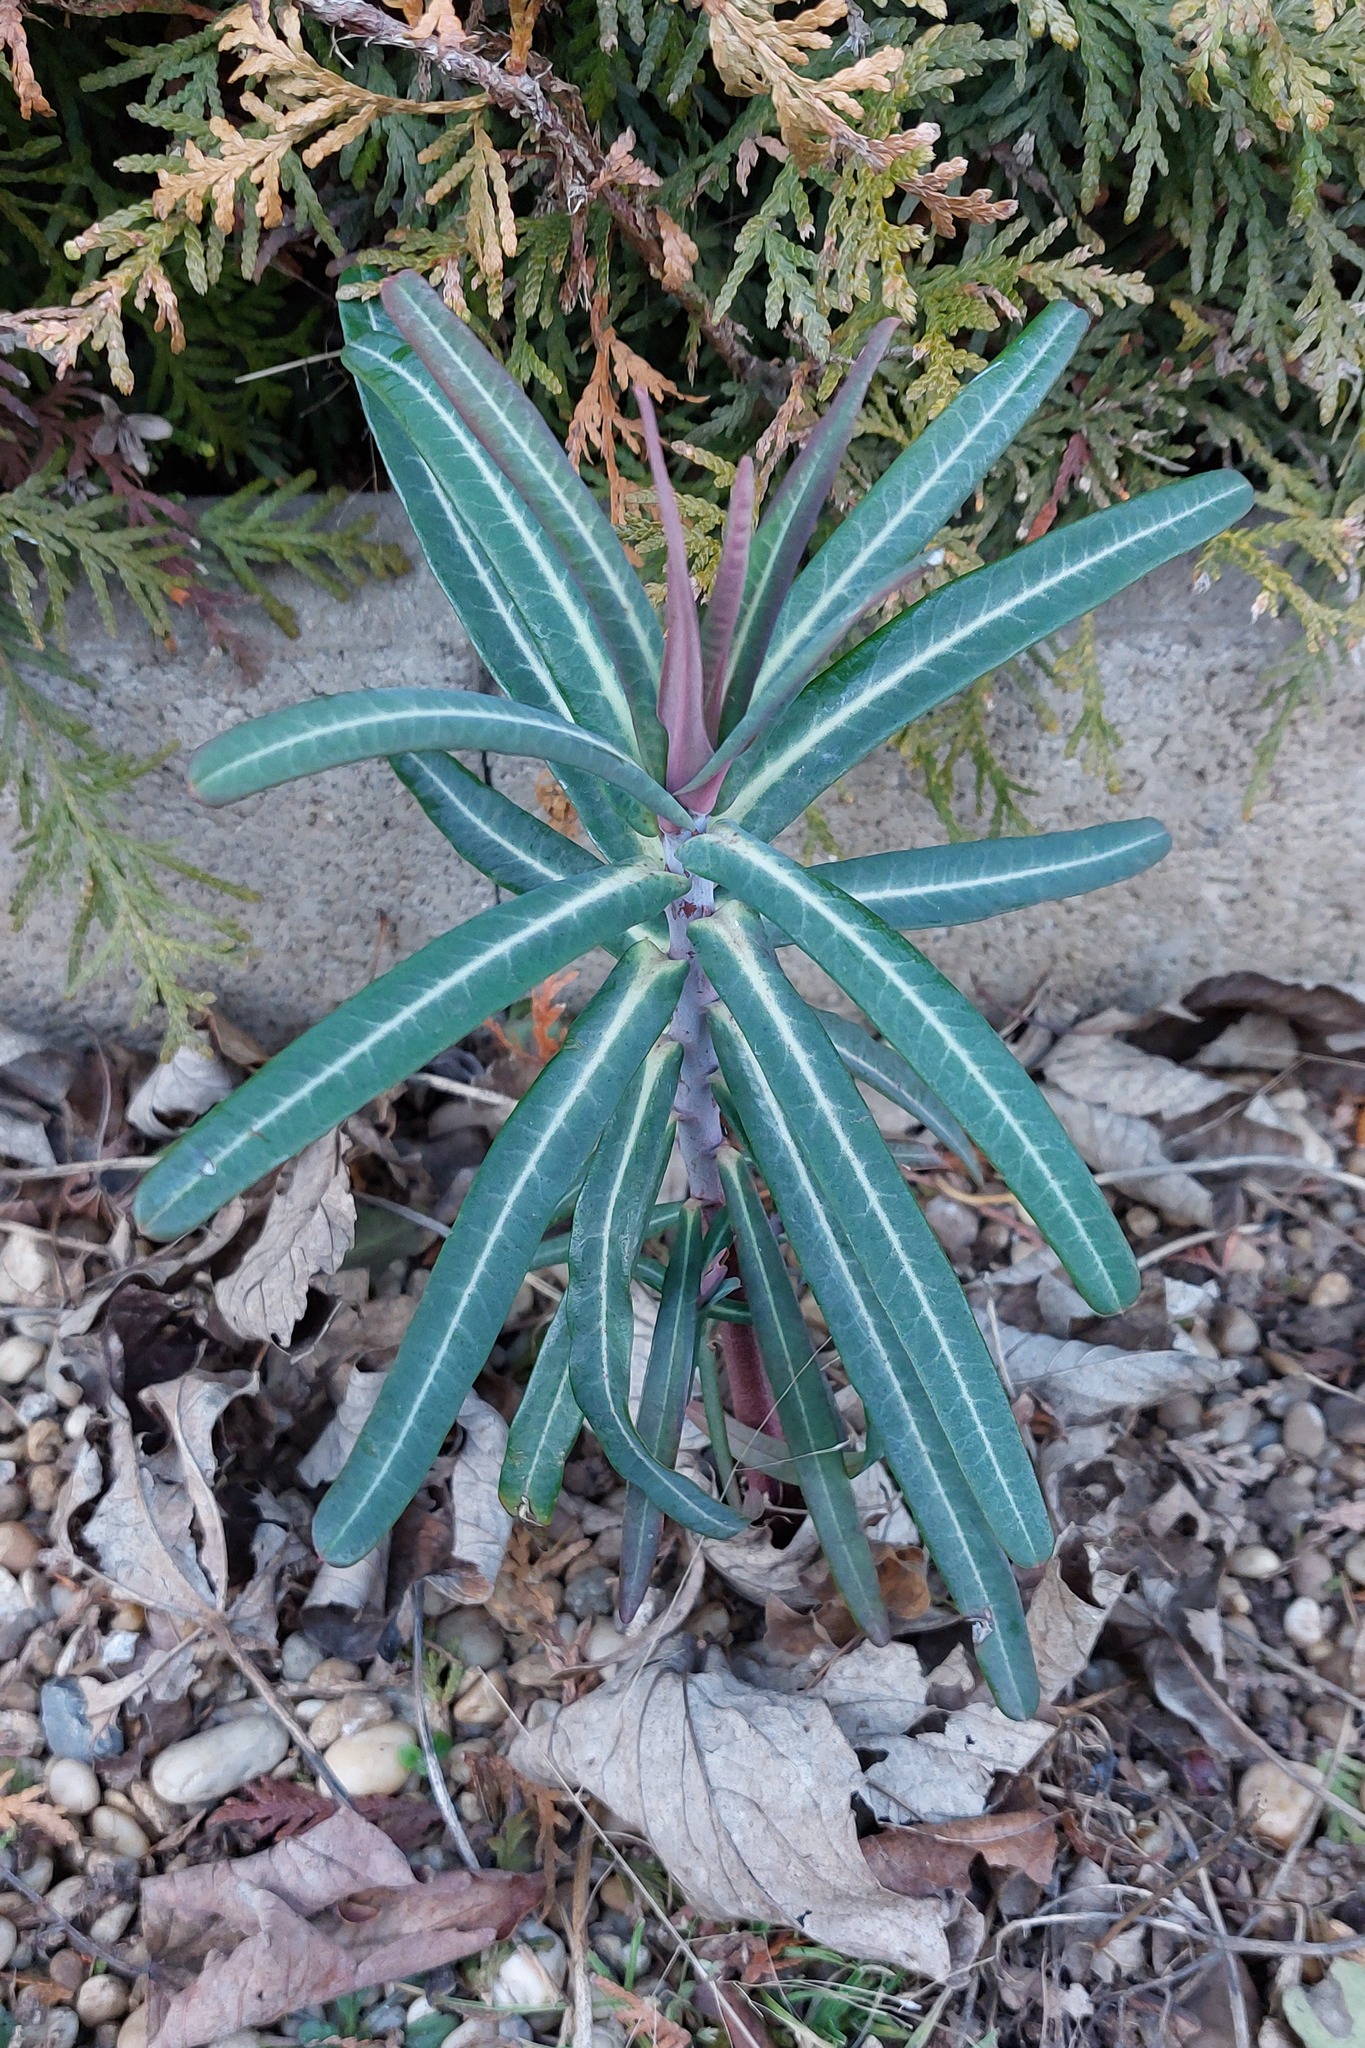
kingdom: Plantae
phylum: Tracheophyta
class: Magnoliopsida
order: Malpighiales
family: Euphorbiaceae
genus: Euphorbia
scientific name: Euphorbia lathyris
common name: Caper spurge
